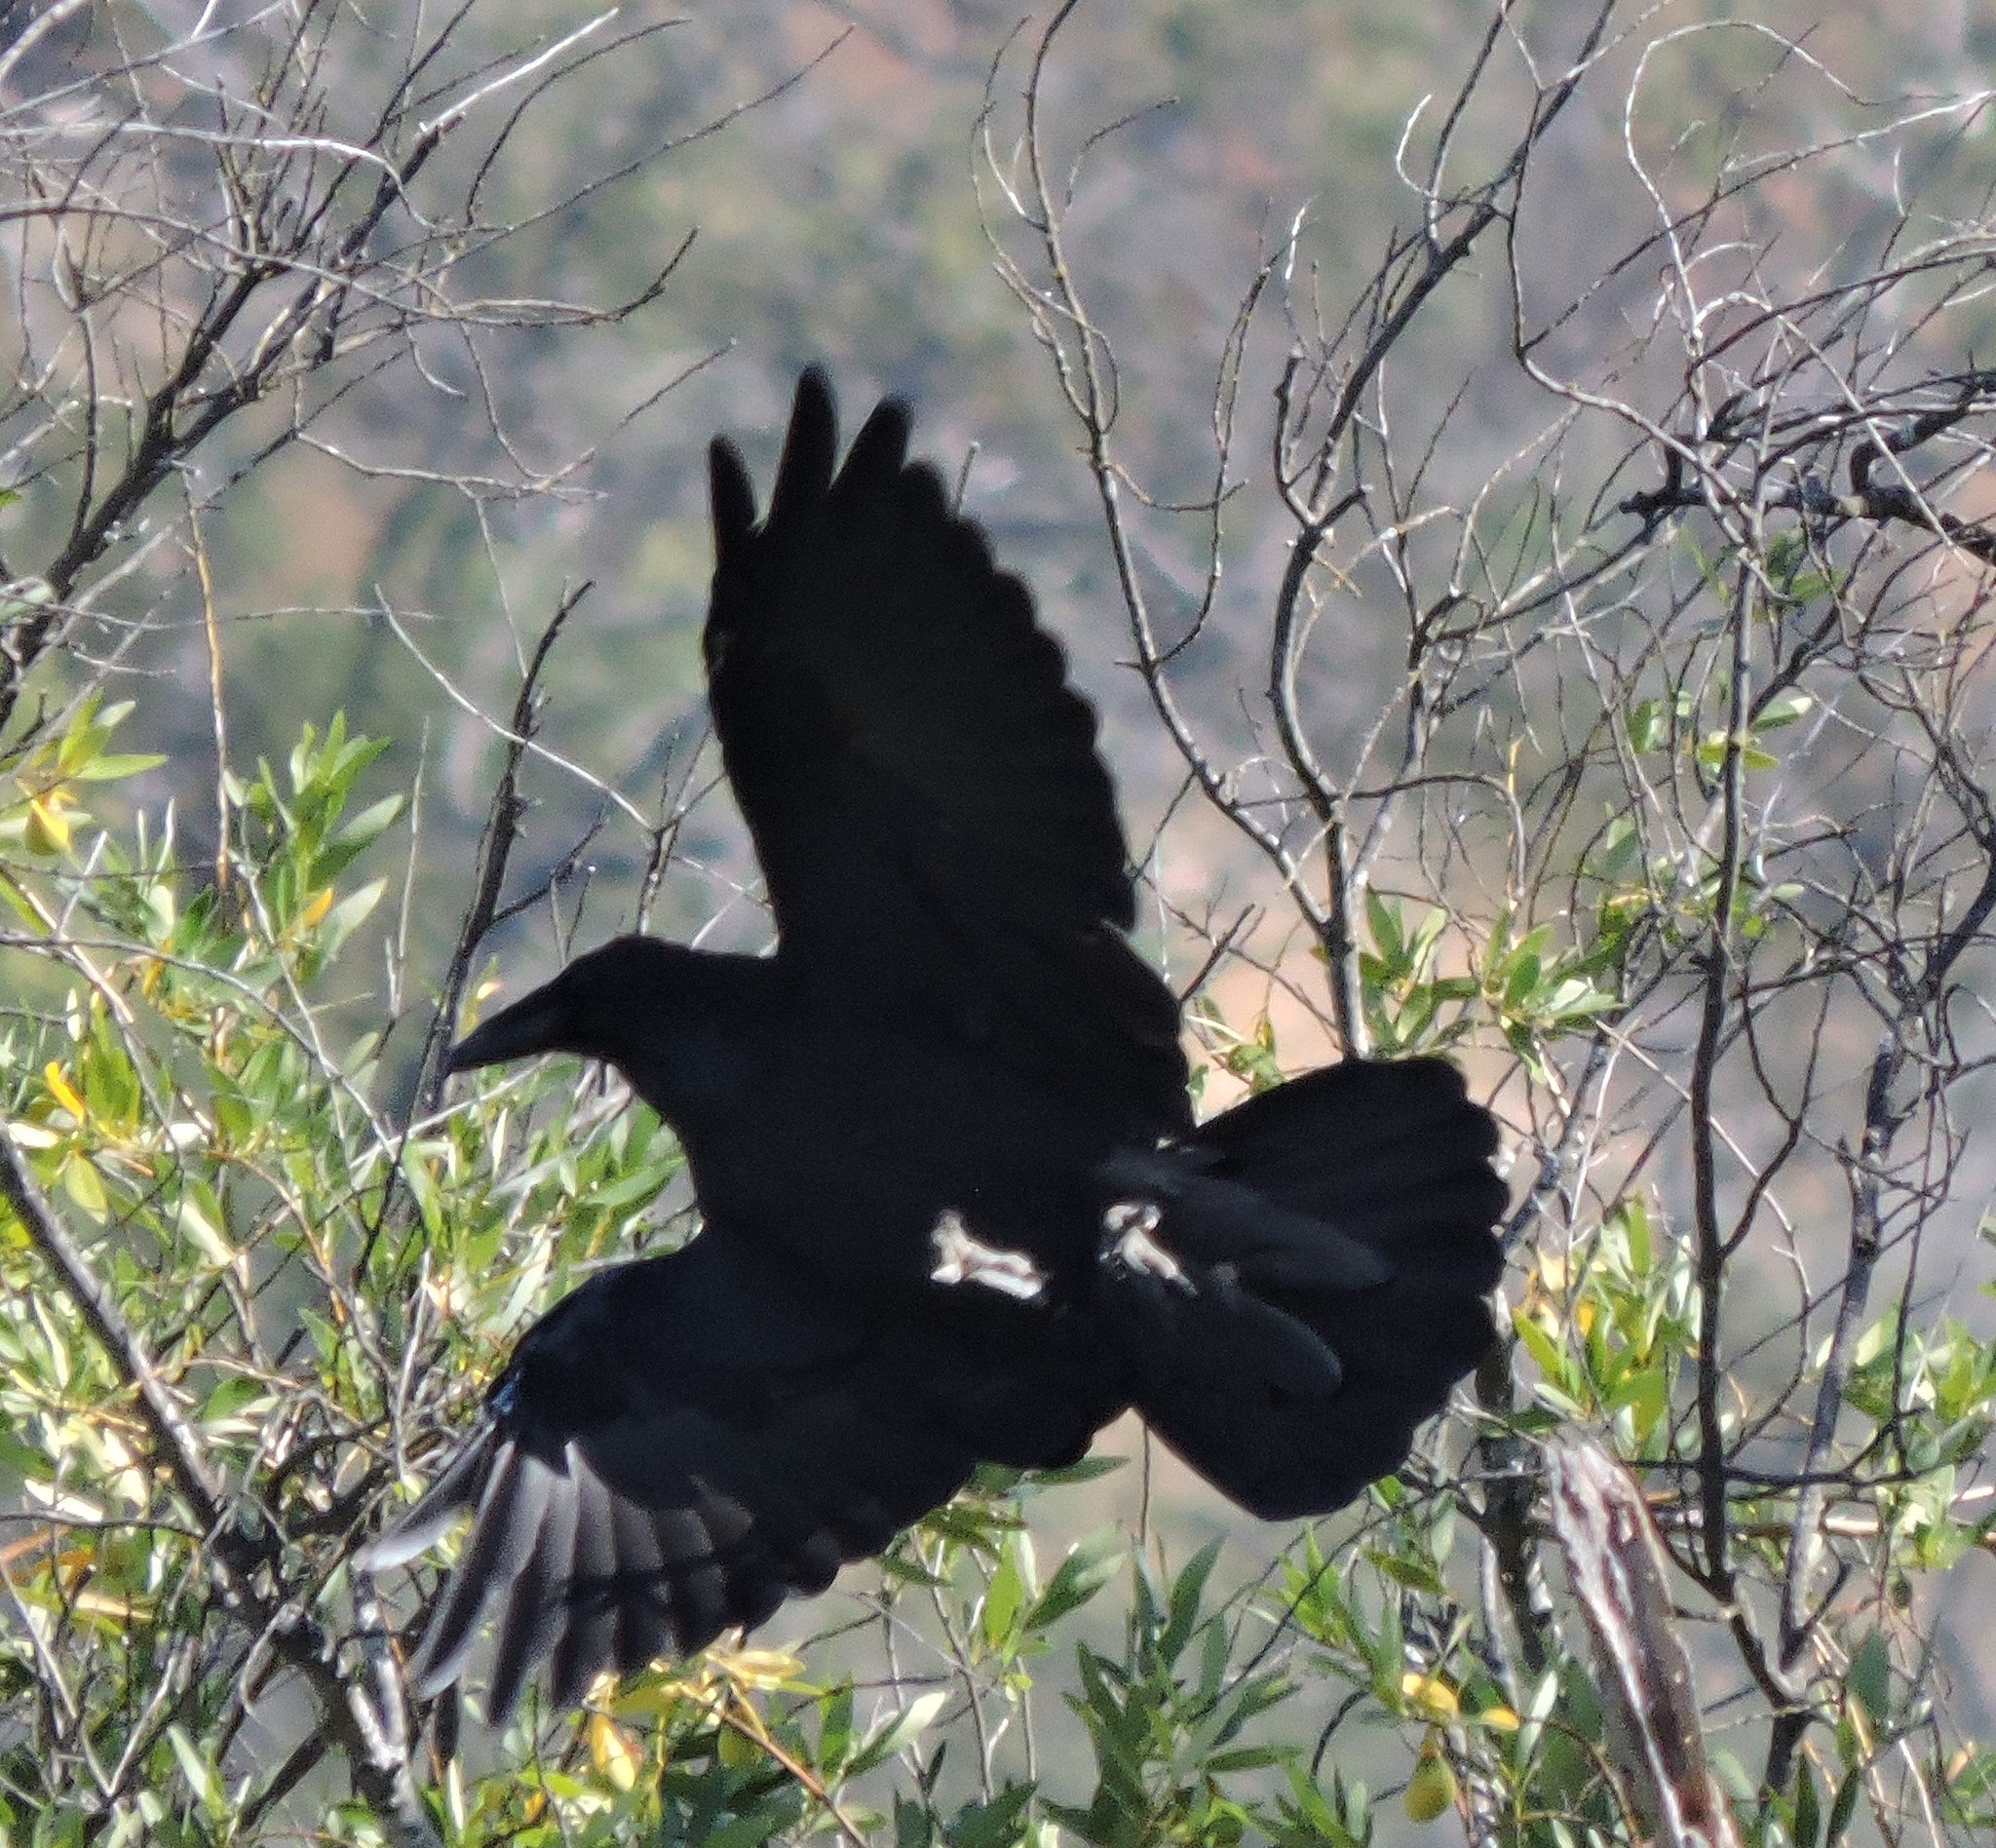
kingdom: Animalia
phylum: Chordata
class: Aves
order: Passeriformes
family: Corvidae
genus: Corvus
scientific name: Corvus corax
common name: Common raven
